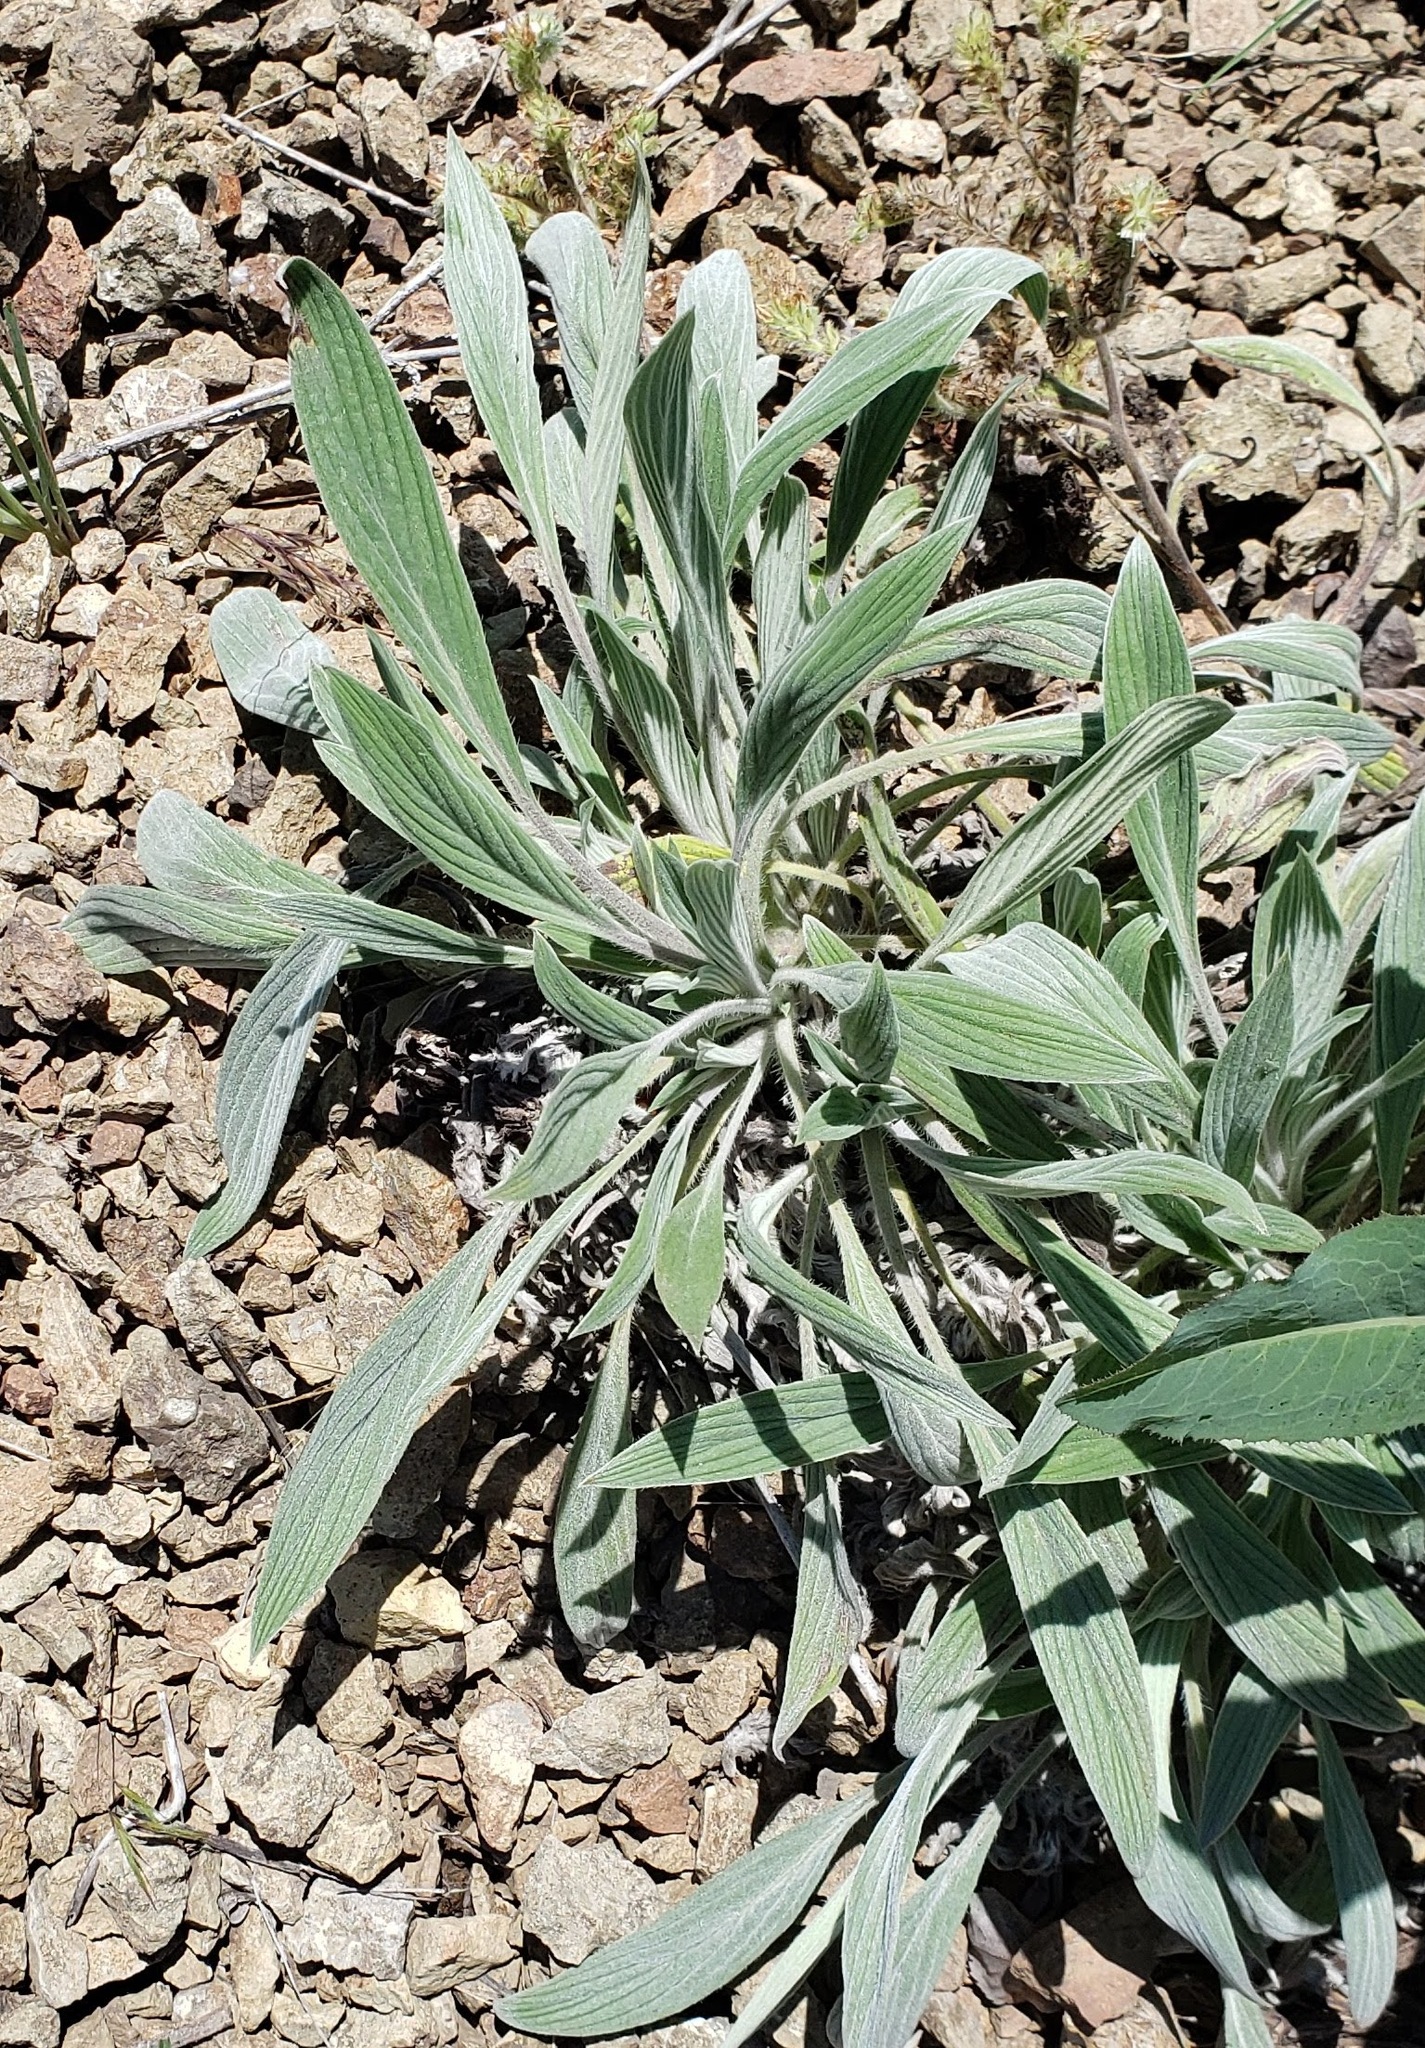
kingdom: Plantae
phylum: Tracheophyta
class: Magnoliopsida
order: Boraginales
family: Hydrophyllaceae
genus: Phacelia
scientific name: Phacelia hastata
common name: Silver-leaved phacelia
